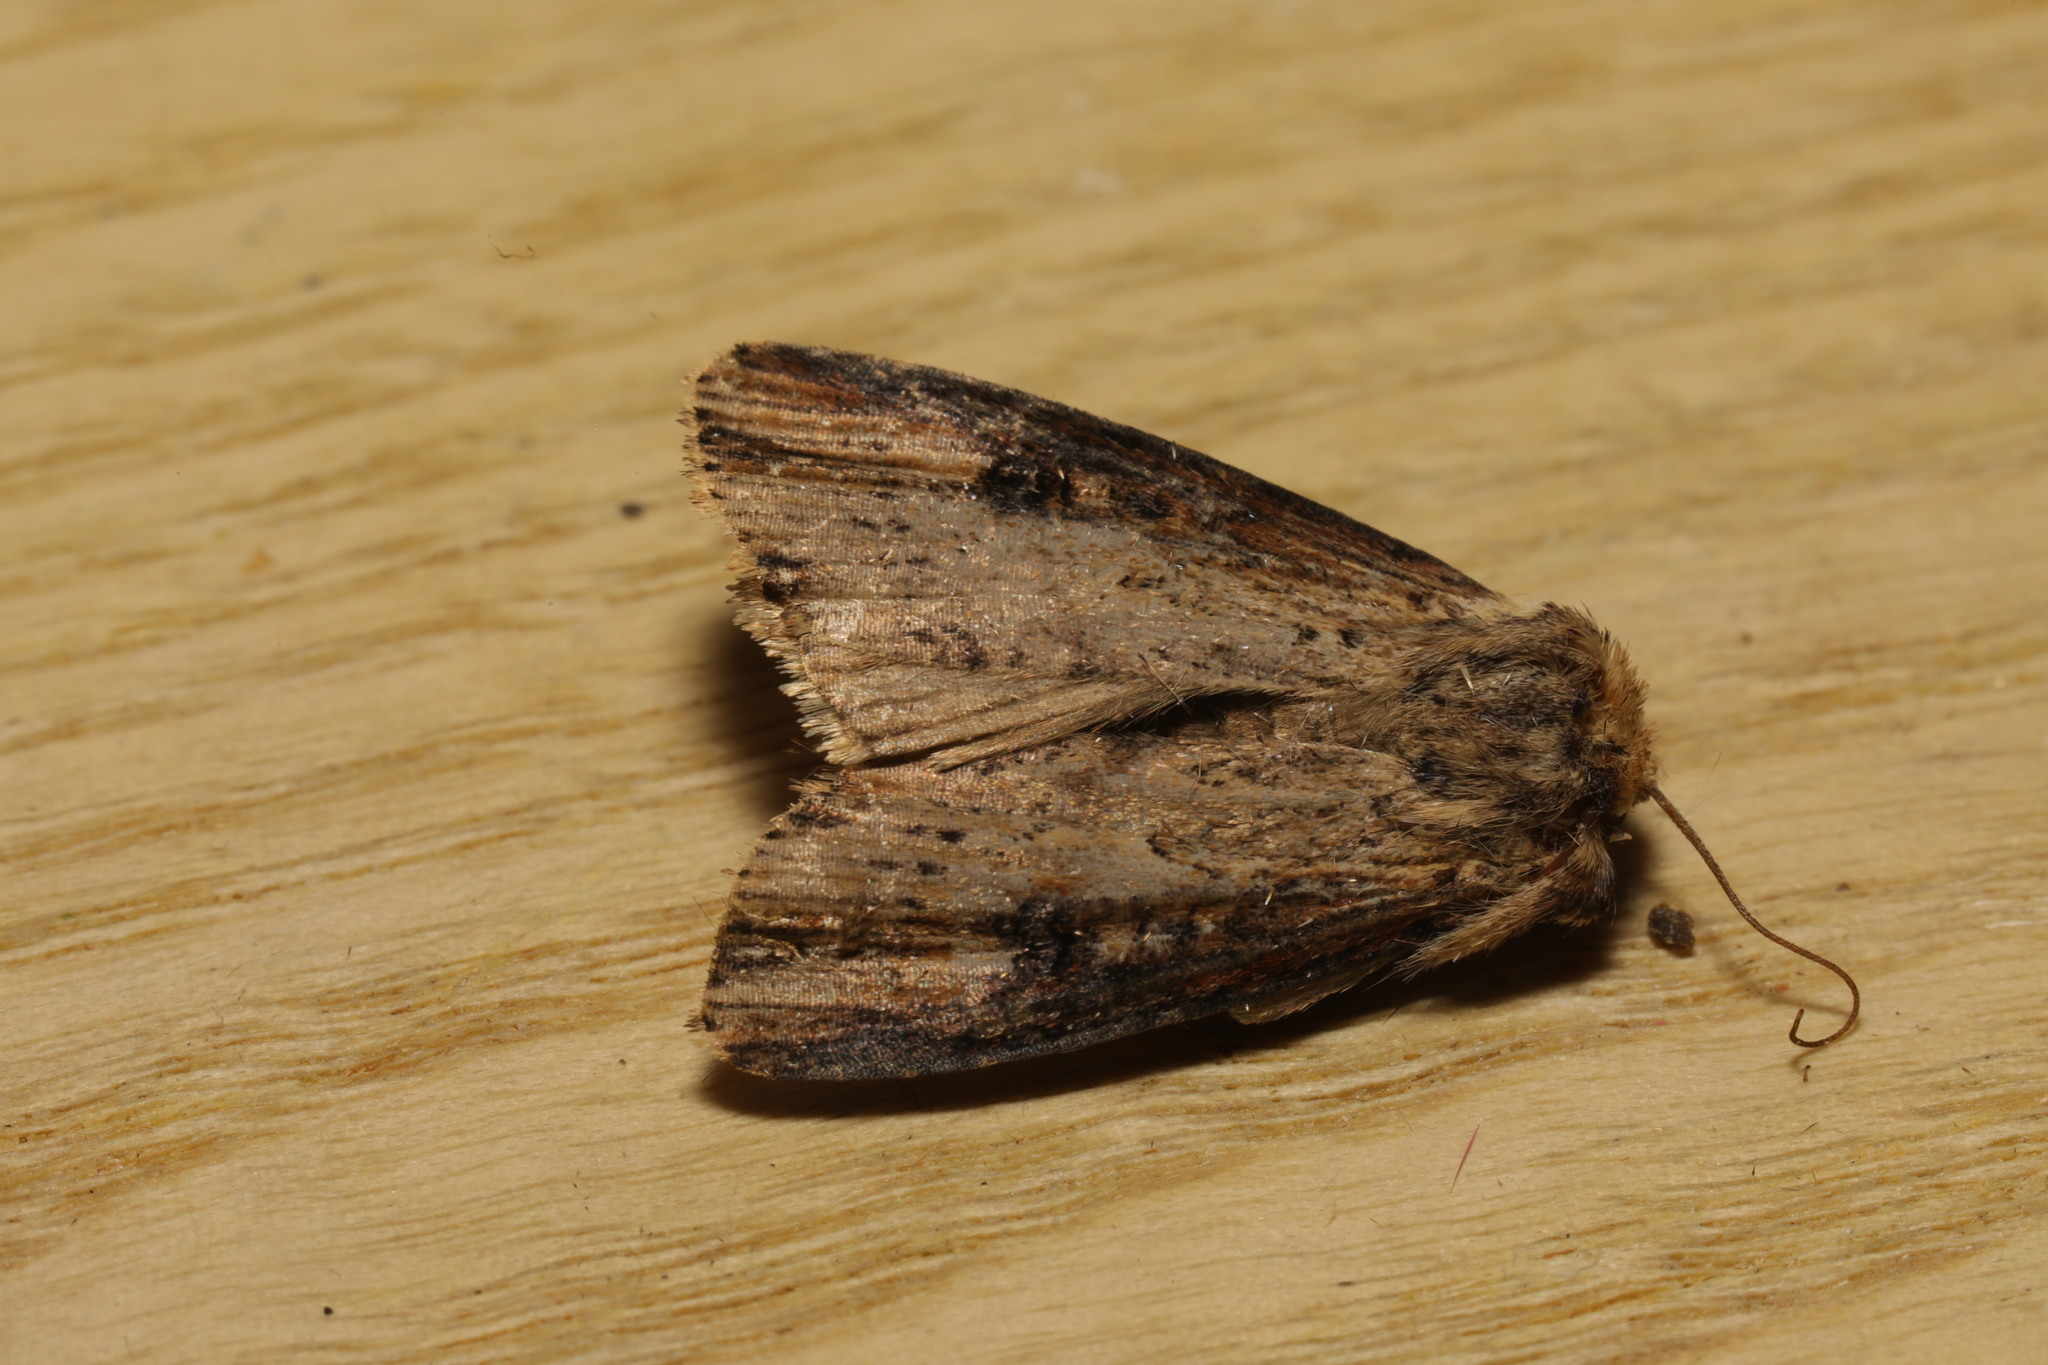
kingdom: Animalia
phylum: Arthropoda
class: Insecta
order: Lepidoptera
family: Noctuidae
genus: Axylia
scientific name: Axylia putris
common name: Flame
